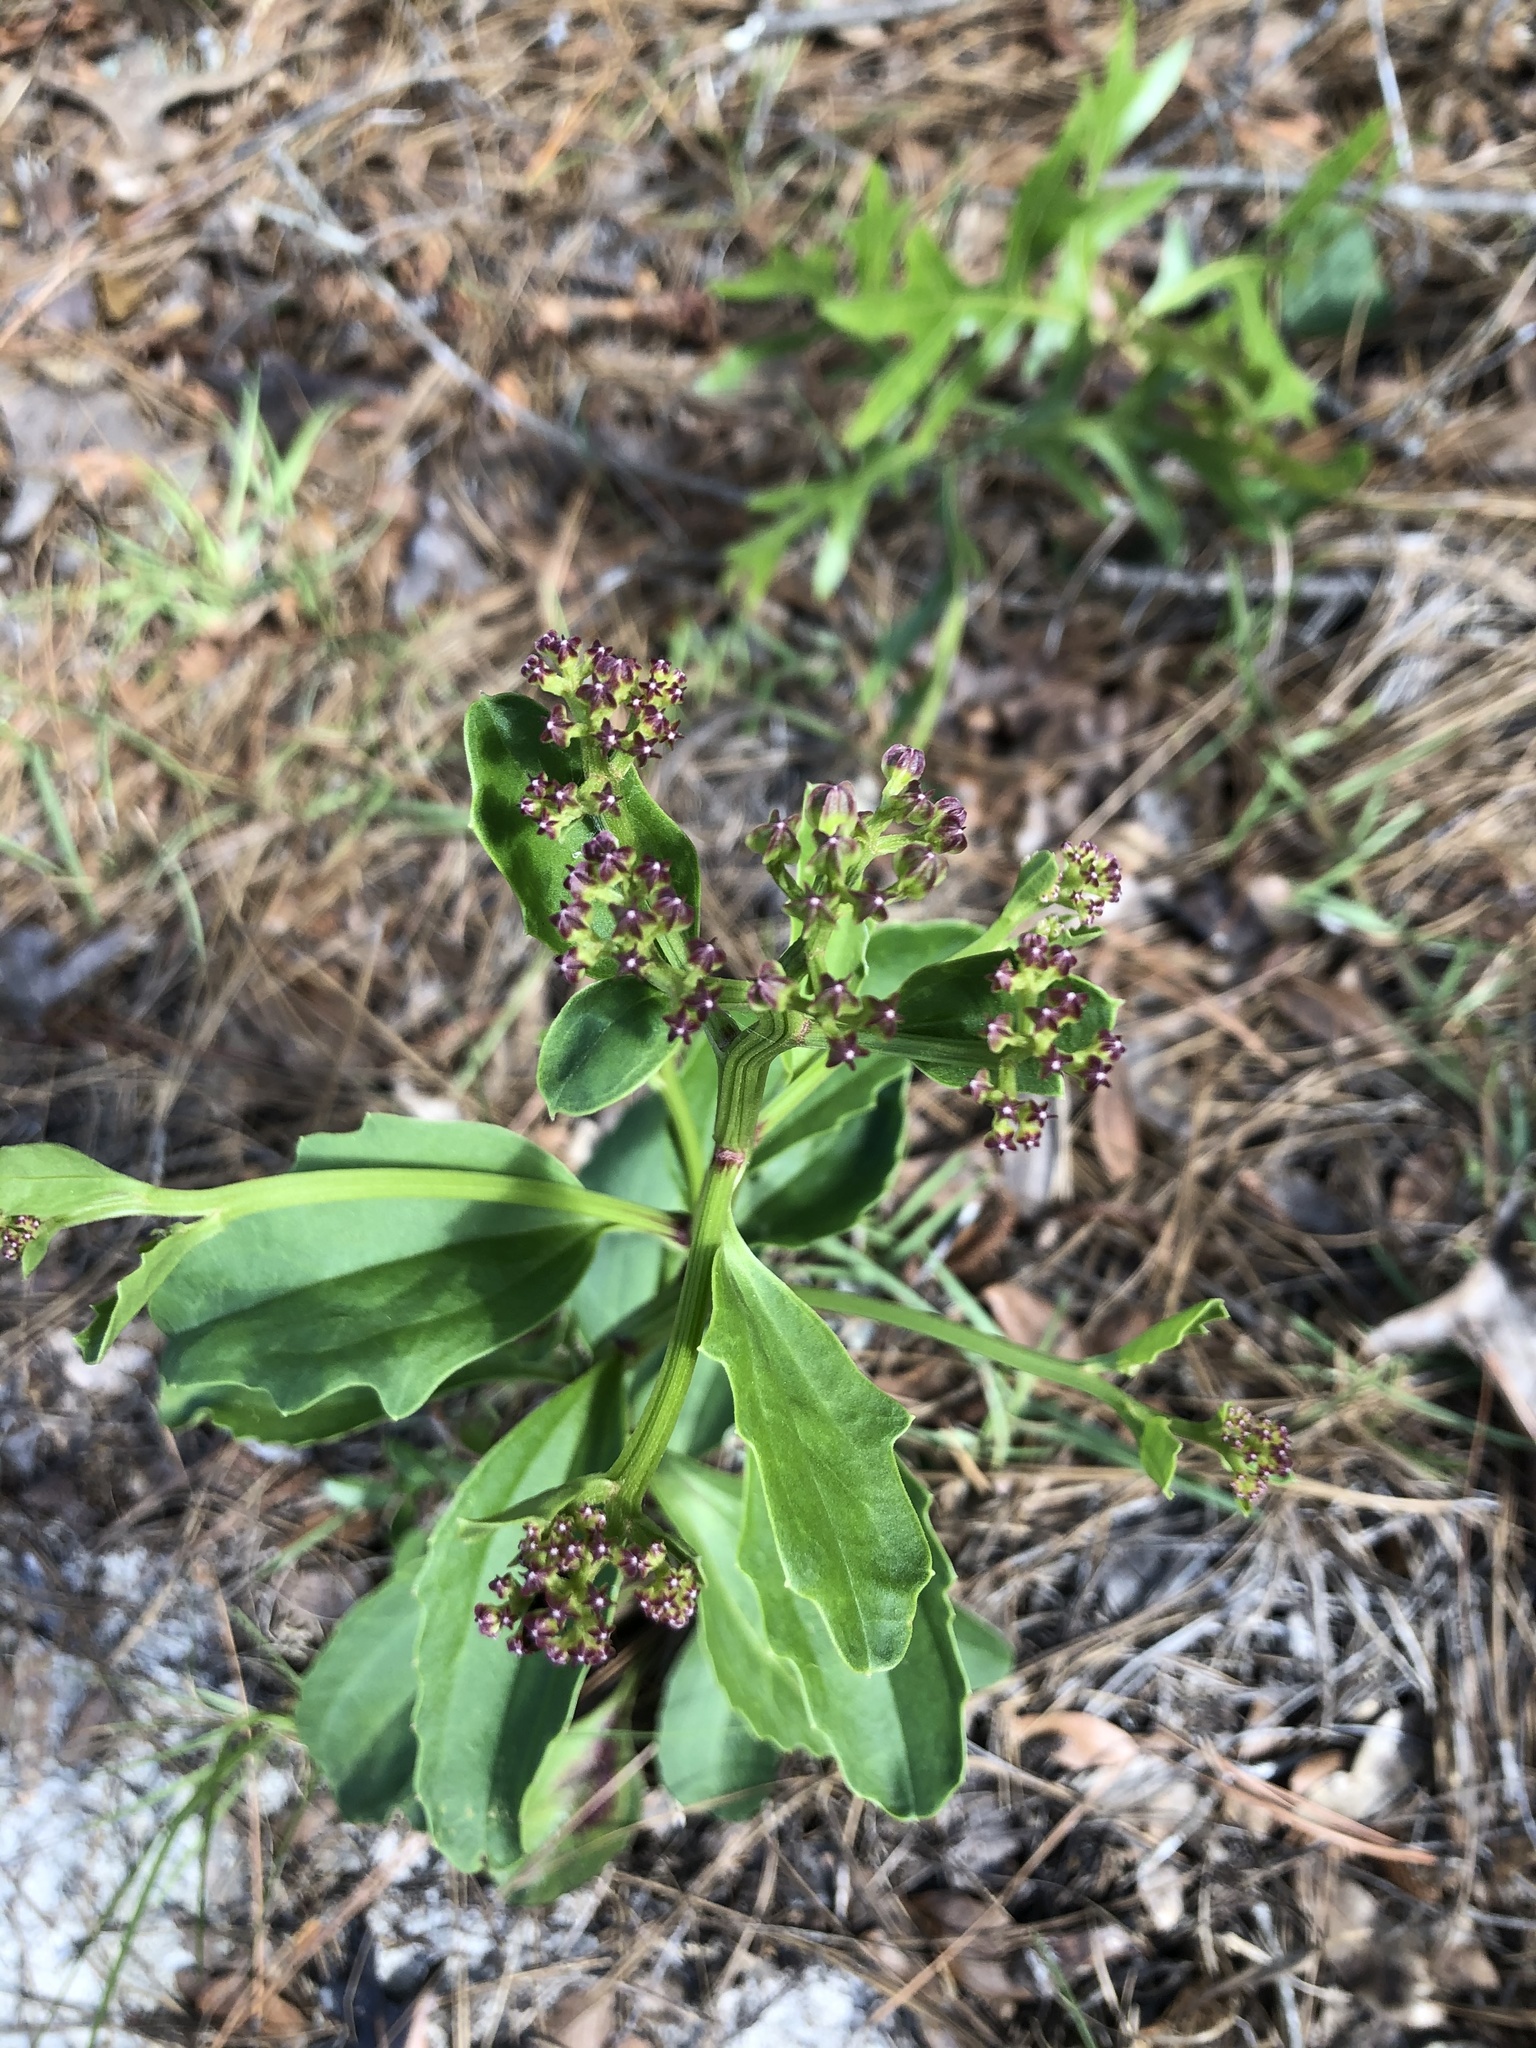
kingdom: Plantae
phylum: Tracheophyta
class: Magnoliopsida
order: Asterales
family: Asteraceae
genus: Carphephorus
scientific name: Carphephorus odoratissimus
